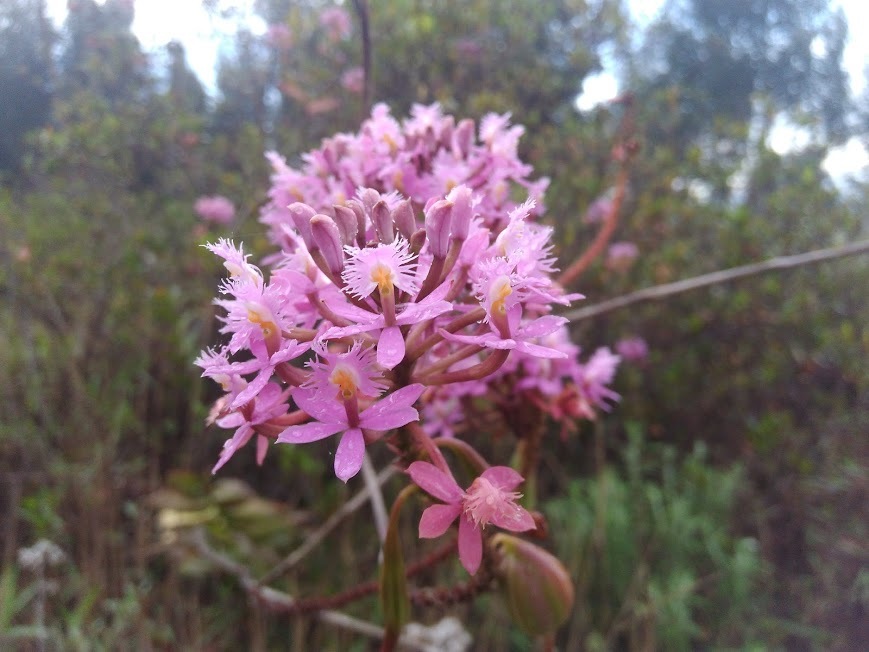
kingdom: Plantae
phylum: Tracheophyta
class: Liliopsida
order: Asparagales
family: Orchidaceae
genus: Epidendrum
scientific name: Epidendrum arachnoglossum
